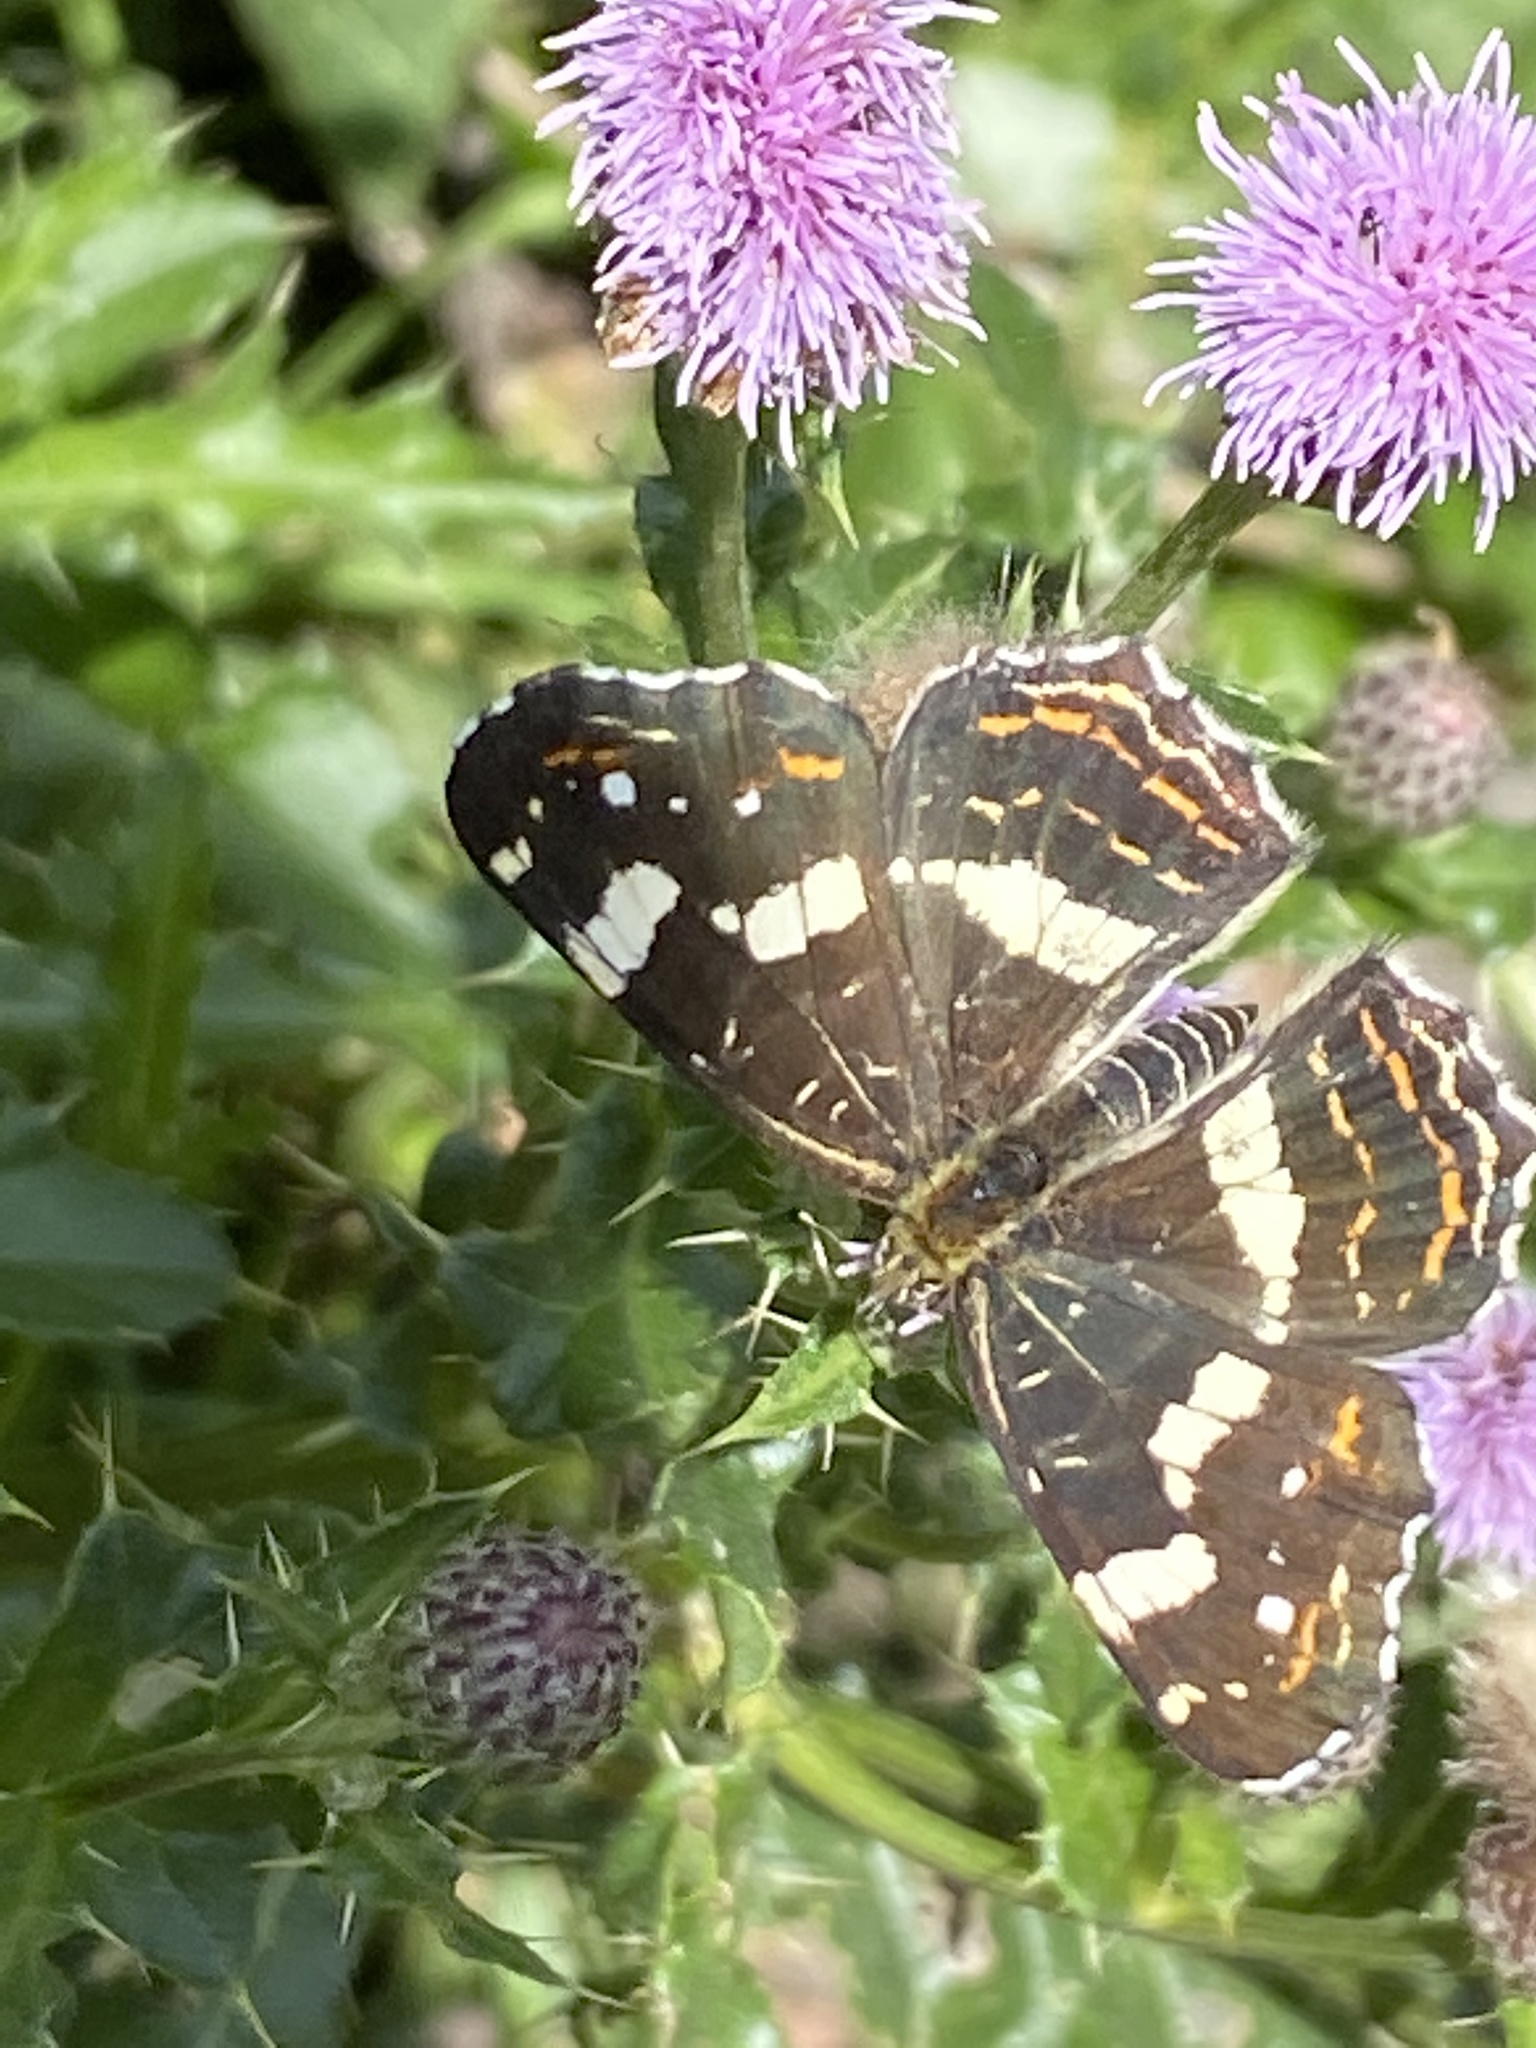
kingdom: Animalia
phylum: Arthropoda
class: Insecta
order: Lepidoptera
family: Nymphalidae
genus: Araschnia
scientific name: Araschnia levana
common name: Map butterfly
